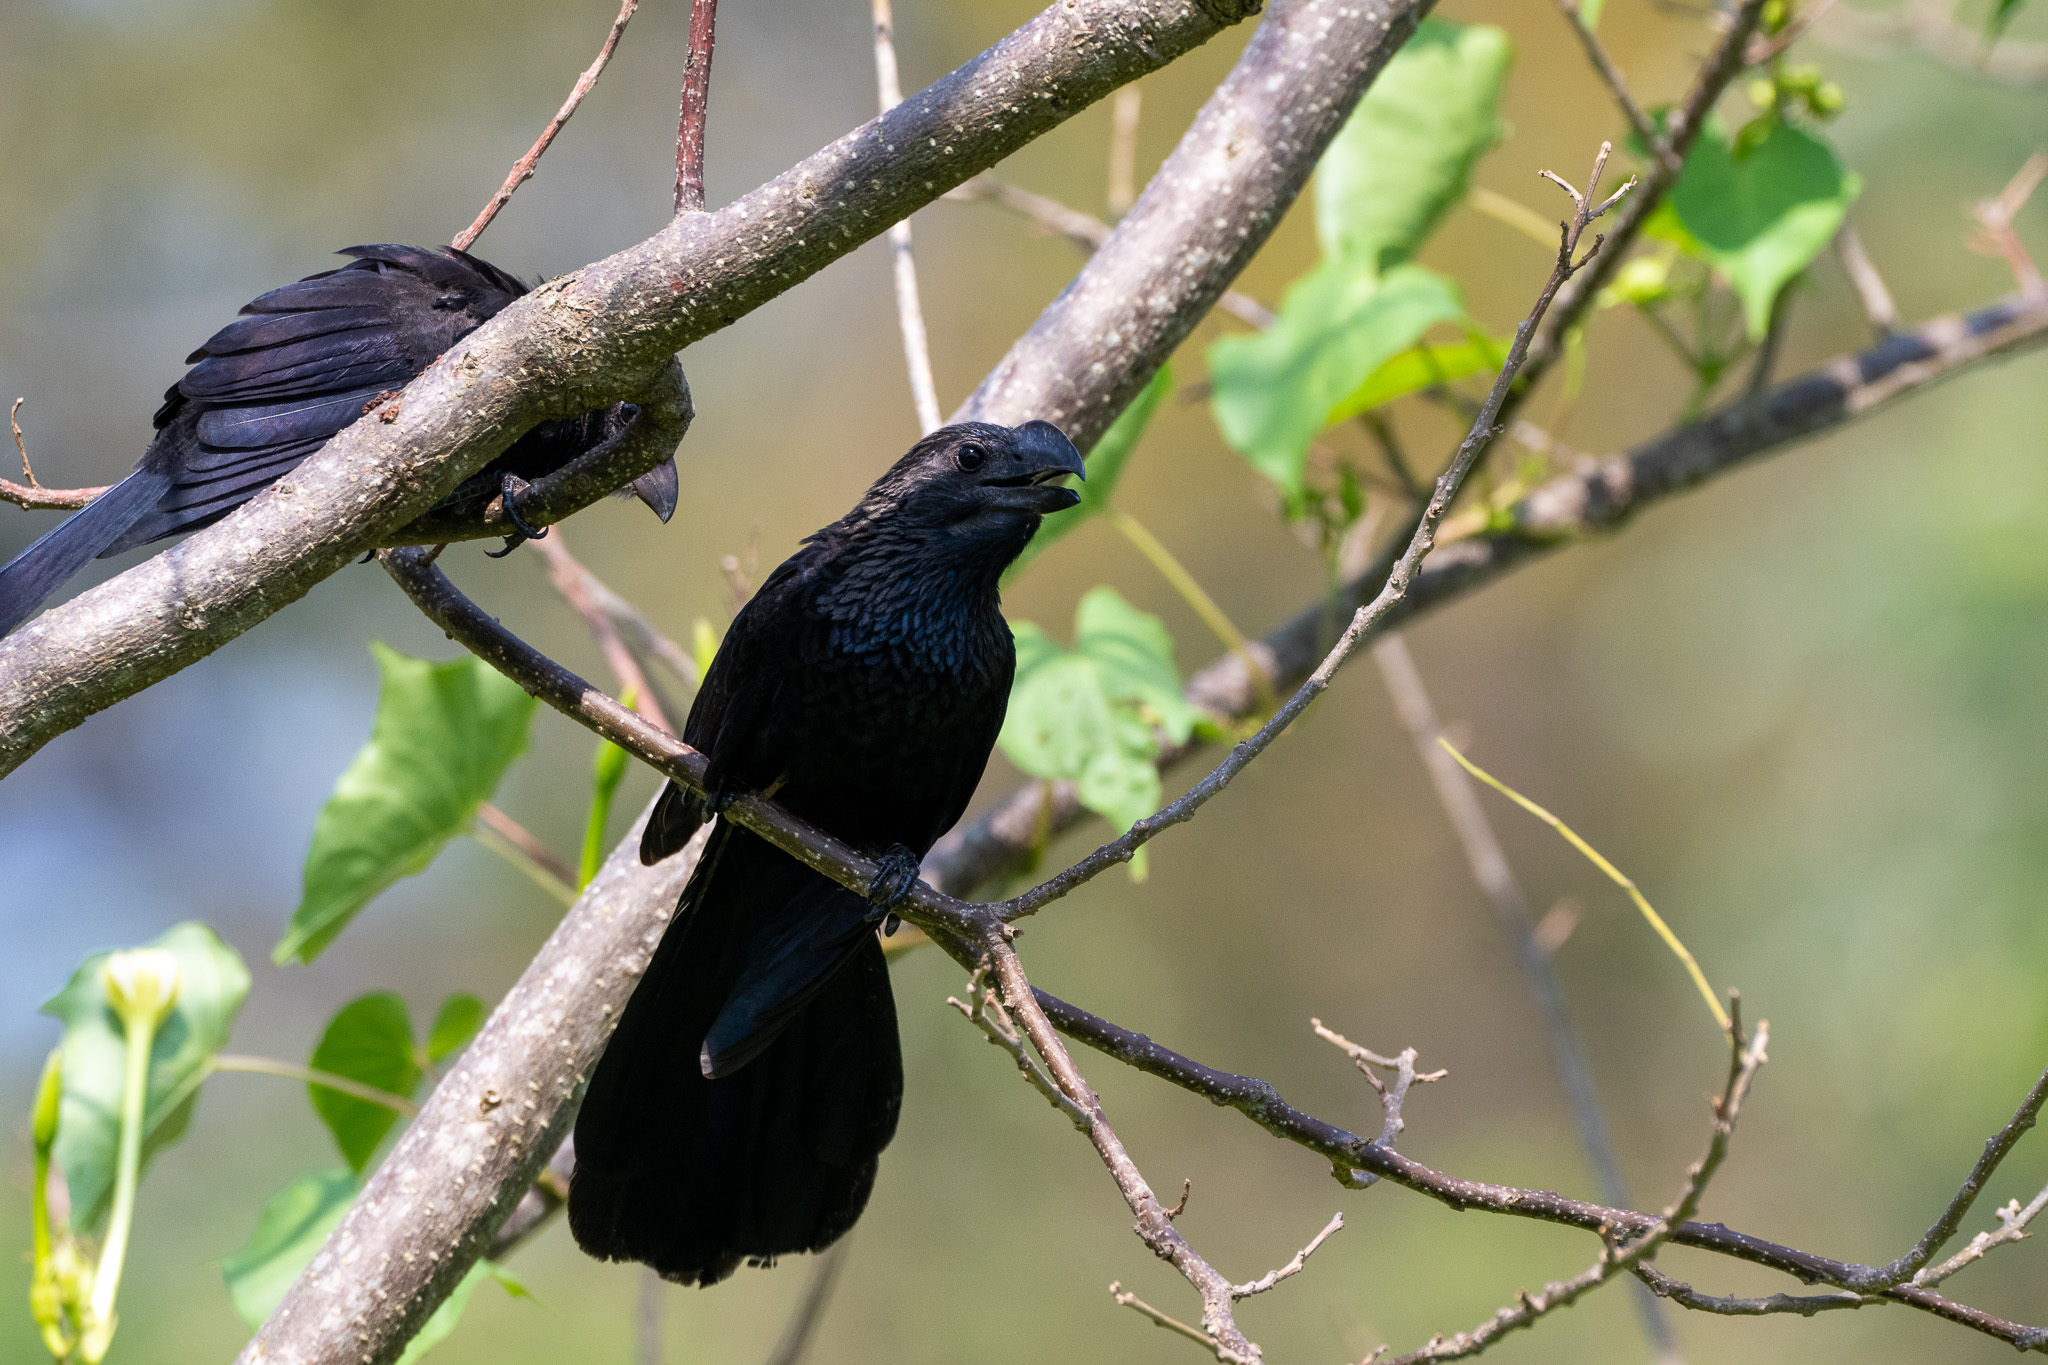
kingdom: Animalia
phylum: Chordata
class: Aves
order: Cuculiformes
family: Cuculidae
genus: Crotophaga
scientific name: Crotophaga ani
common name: Smooth-billed ani
